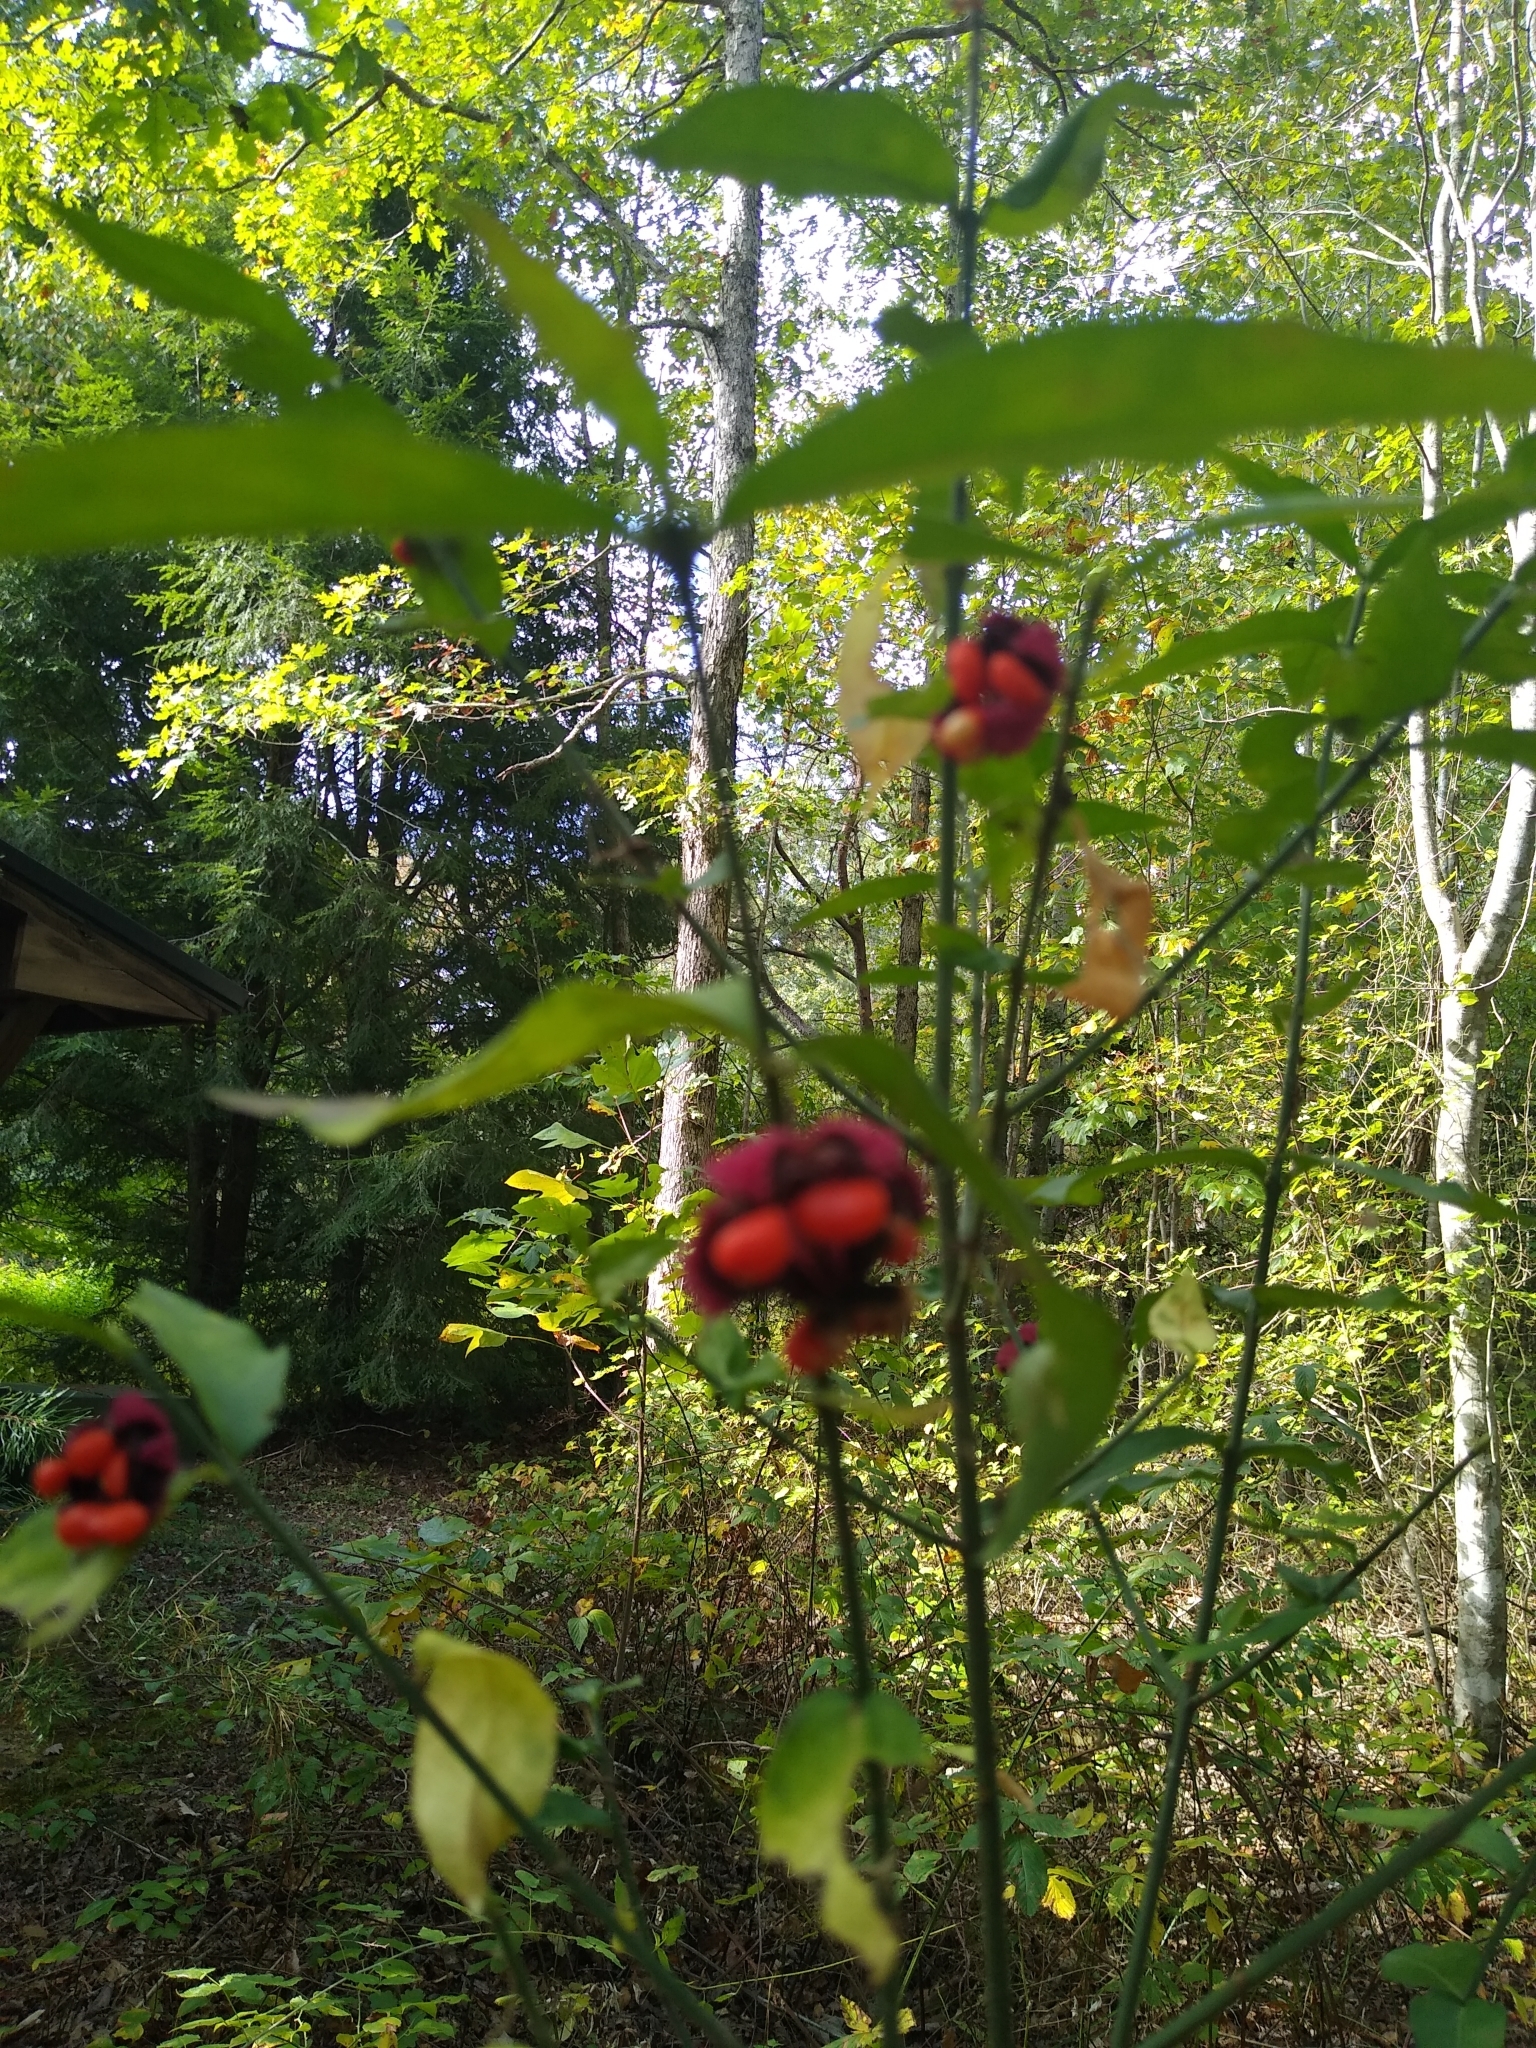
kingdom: Plantae
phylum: Tracheophyta
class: Magnoliopsida
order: Celastrales
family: Celastraceae
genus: Euonymus
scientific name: Euonymus americanus
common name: Bursting-heart
